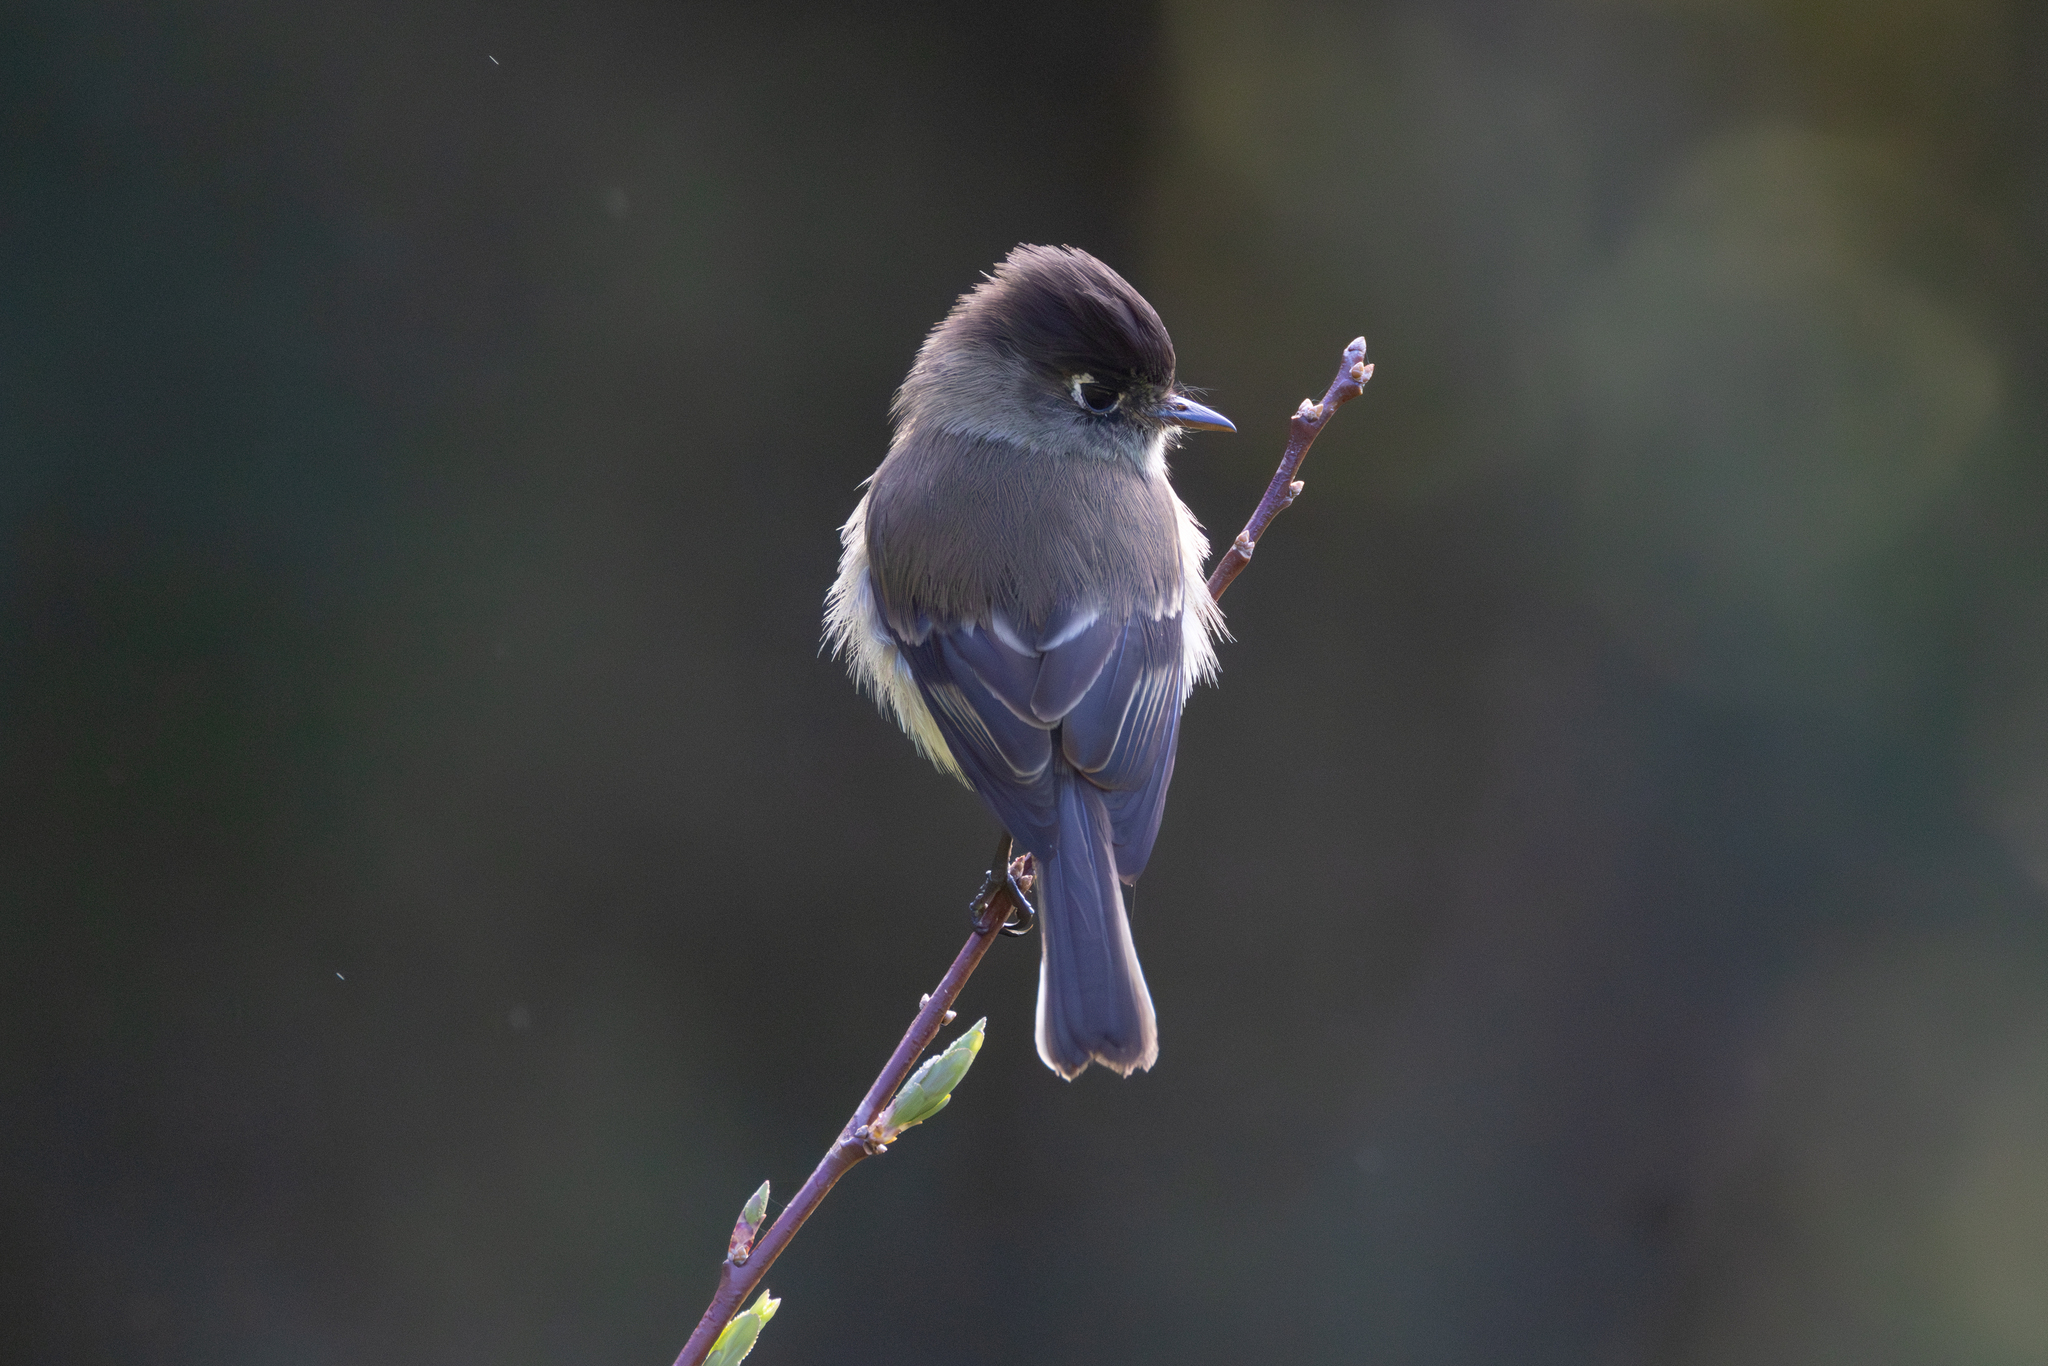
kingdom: Animalia
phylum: Chordata
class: Aves
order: Passeriformes
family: Tyrannidae
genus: Empidonax
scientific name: Empidonax atriceps
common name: Black-capped flycatcher
